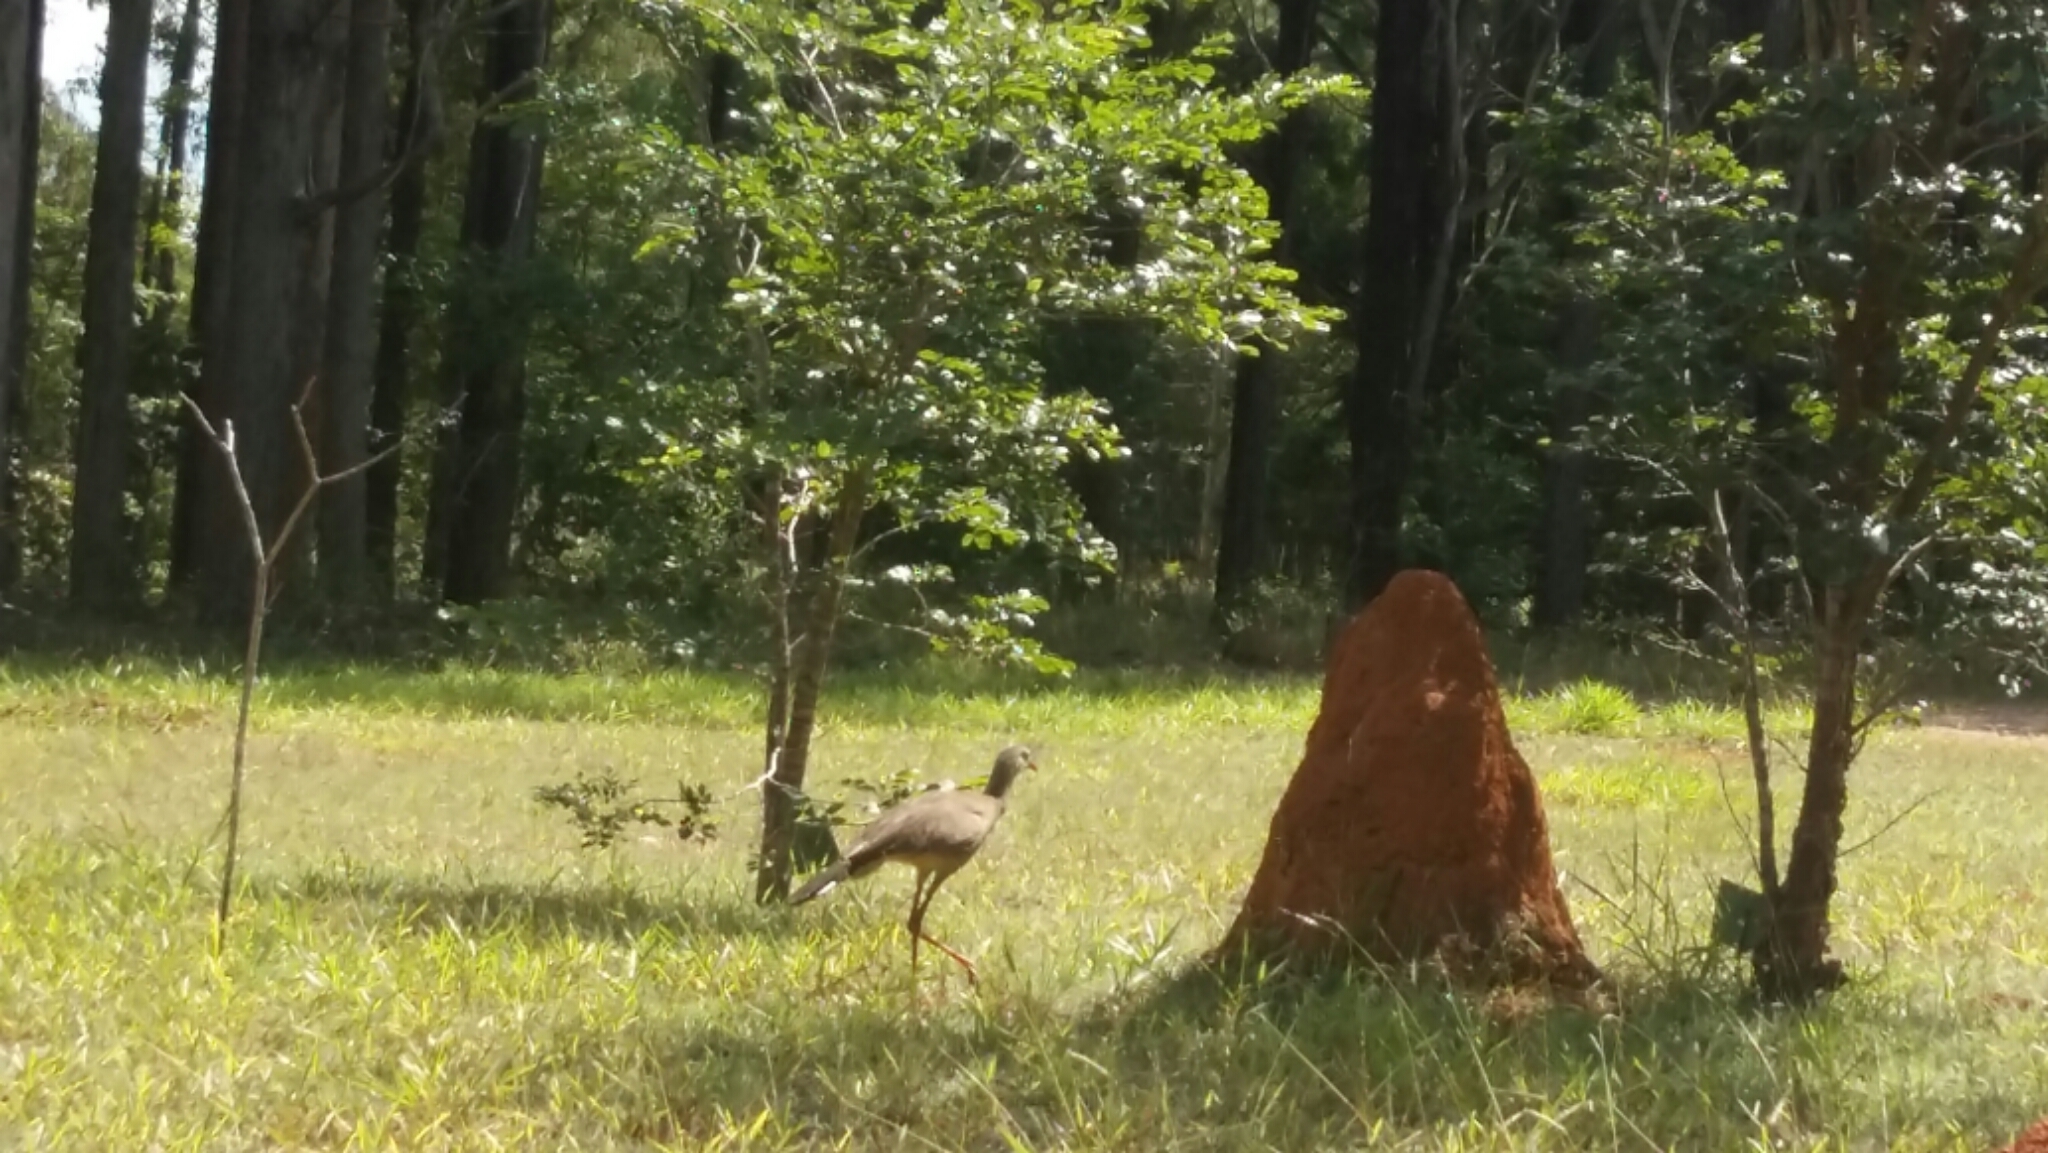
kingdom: Animalia
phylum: Chordata
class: Aves
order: Cariamiformes
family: Cariamidae
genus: Cariama
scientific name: Cariama cristata
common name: Red-legged seriema
